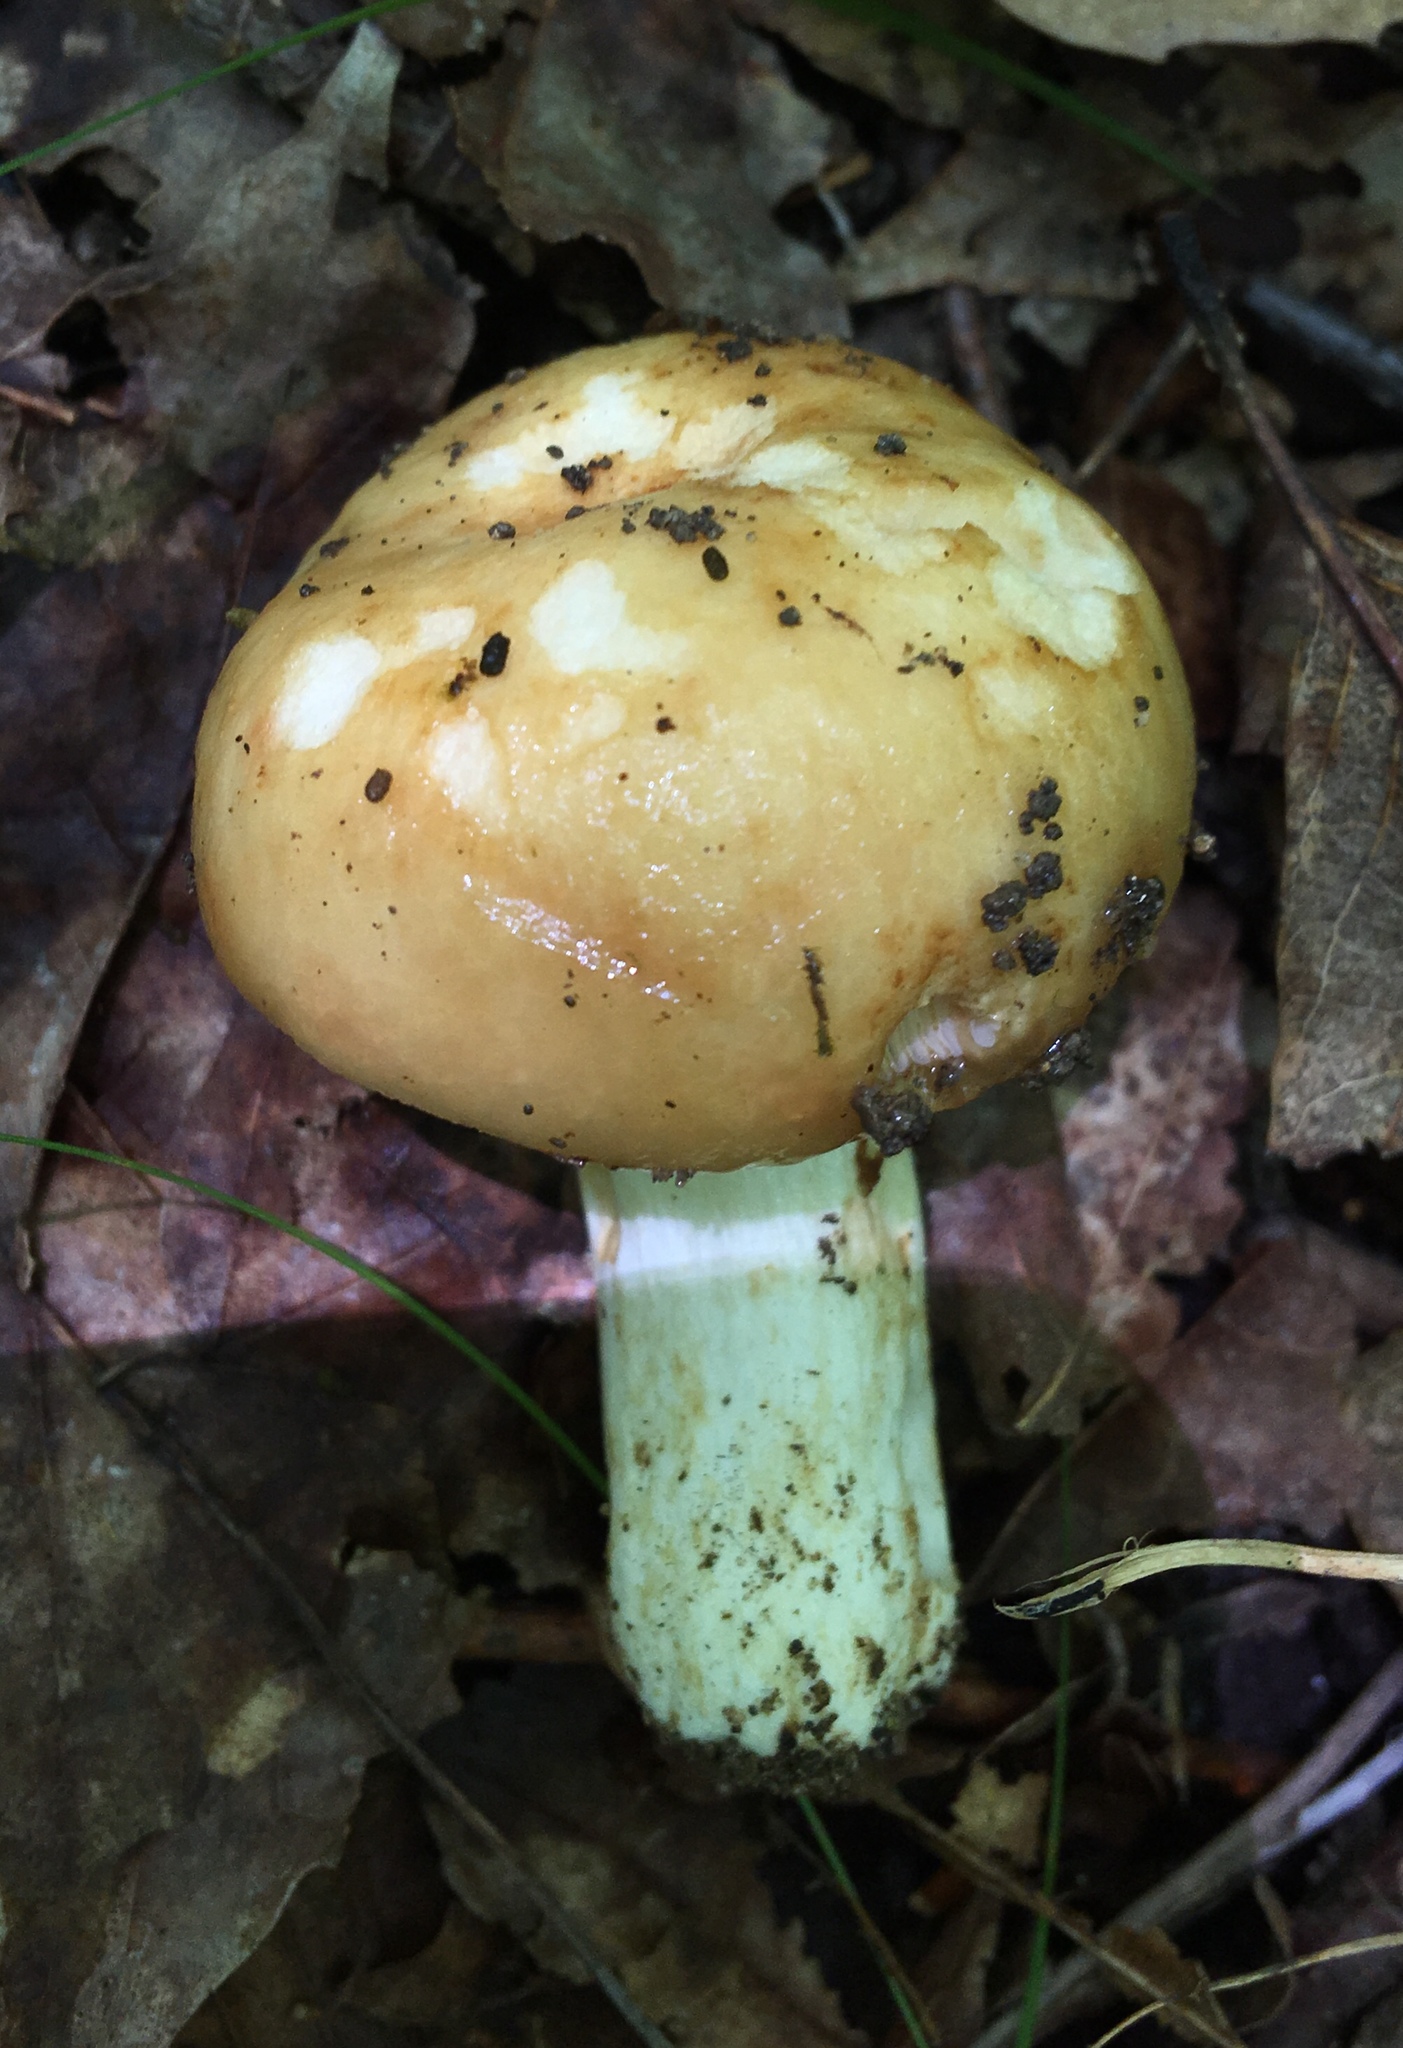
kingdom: Fungi
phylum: Basidiomycota
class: Agaricomycetes
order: Russulales
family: Russulaceae
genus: Russula
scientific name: Russula grata
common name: Bitter almond brittlegill
